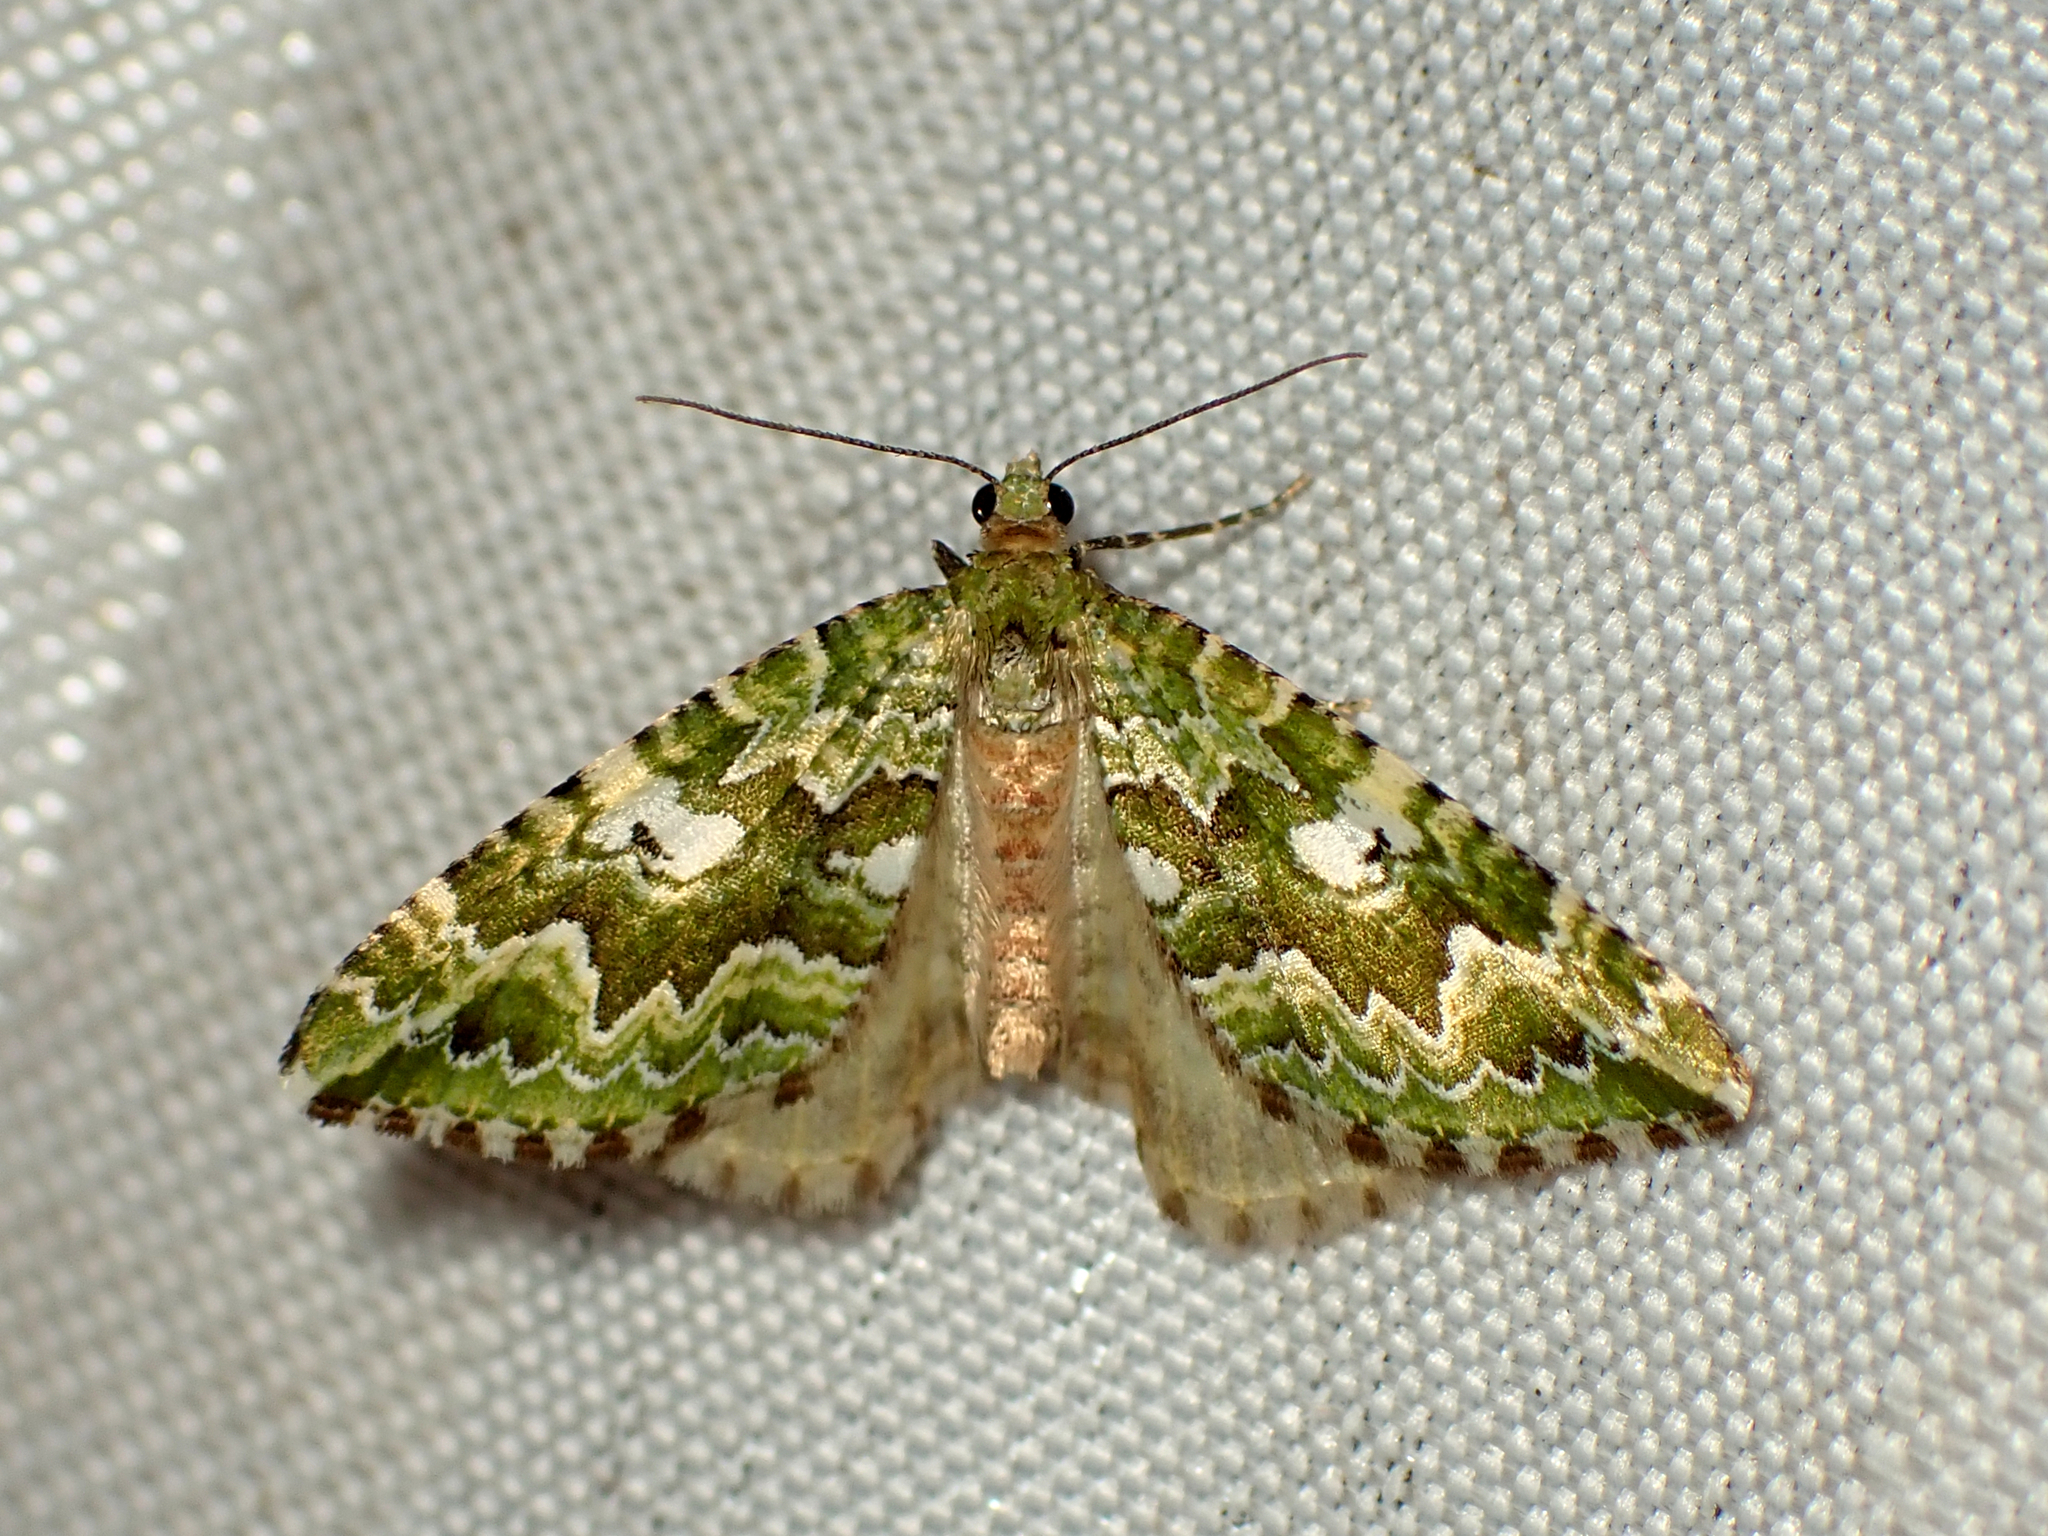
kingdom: Animalia
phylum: Arthropoda
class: Insecta
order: Lepidoptera
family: Geometridae
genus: Asaphodes
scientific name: Asaphodes beata
